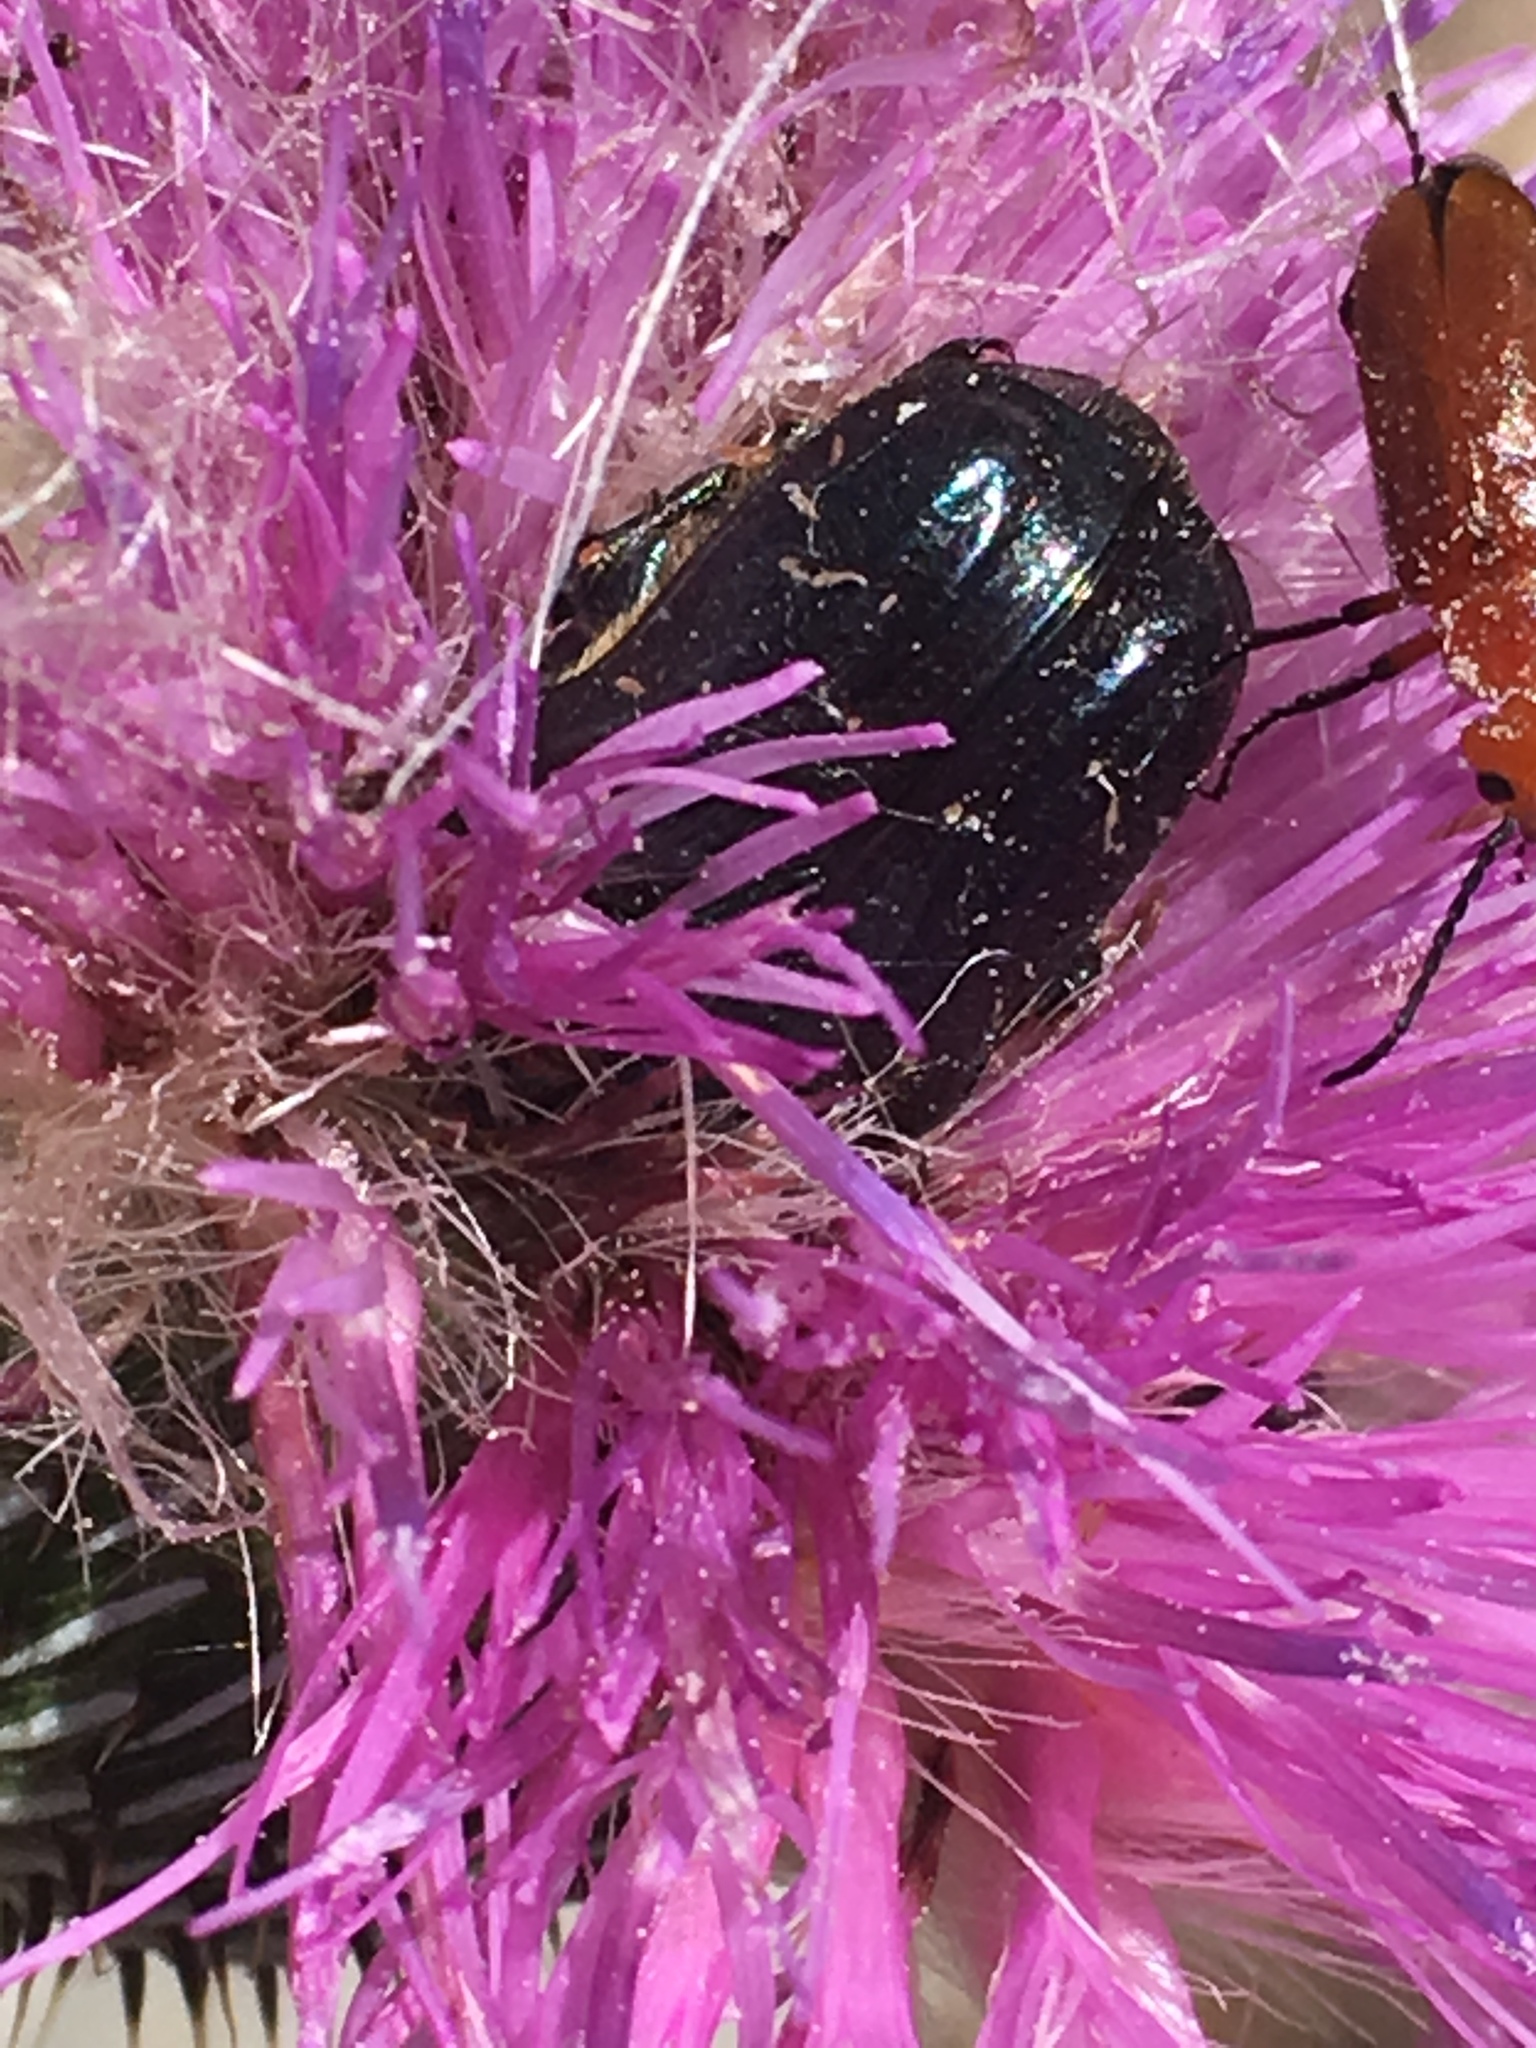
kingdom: Animalia
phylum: Arthropoda
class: Insecta
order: Coleoptera
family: Scarabaeidae
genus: Euphoria
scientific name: Euphoria sepulcralis
